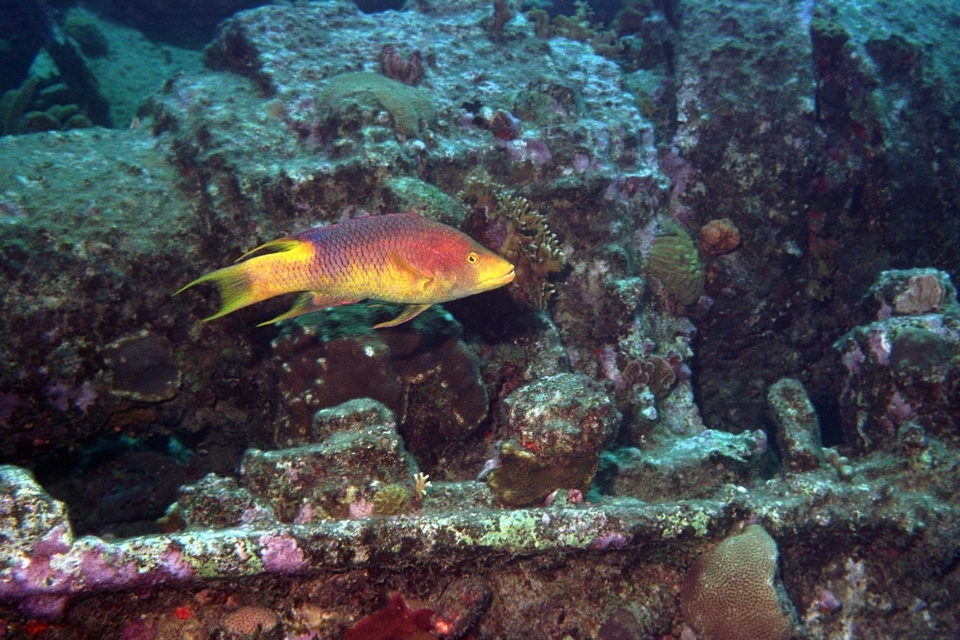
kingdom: Animalia
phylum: Chordata
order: Perciformes
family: Labridae
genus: Bodianus
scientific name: Bodianus rufus
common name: Spanish hogfish
